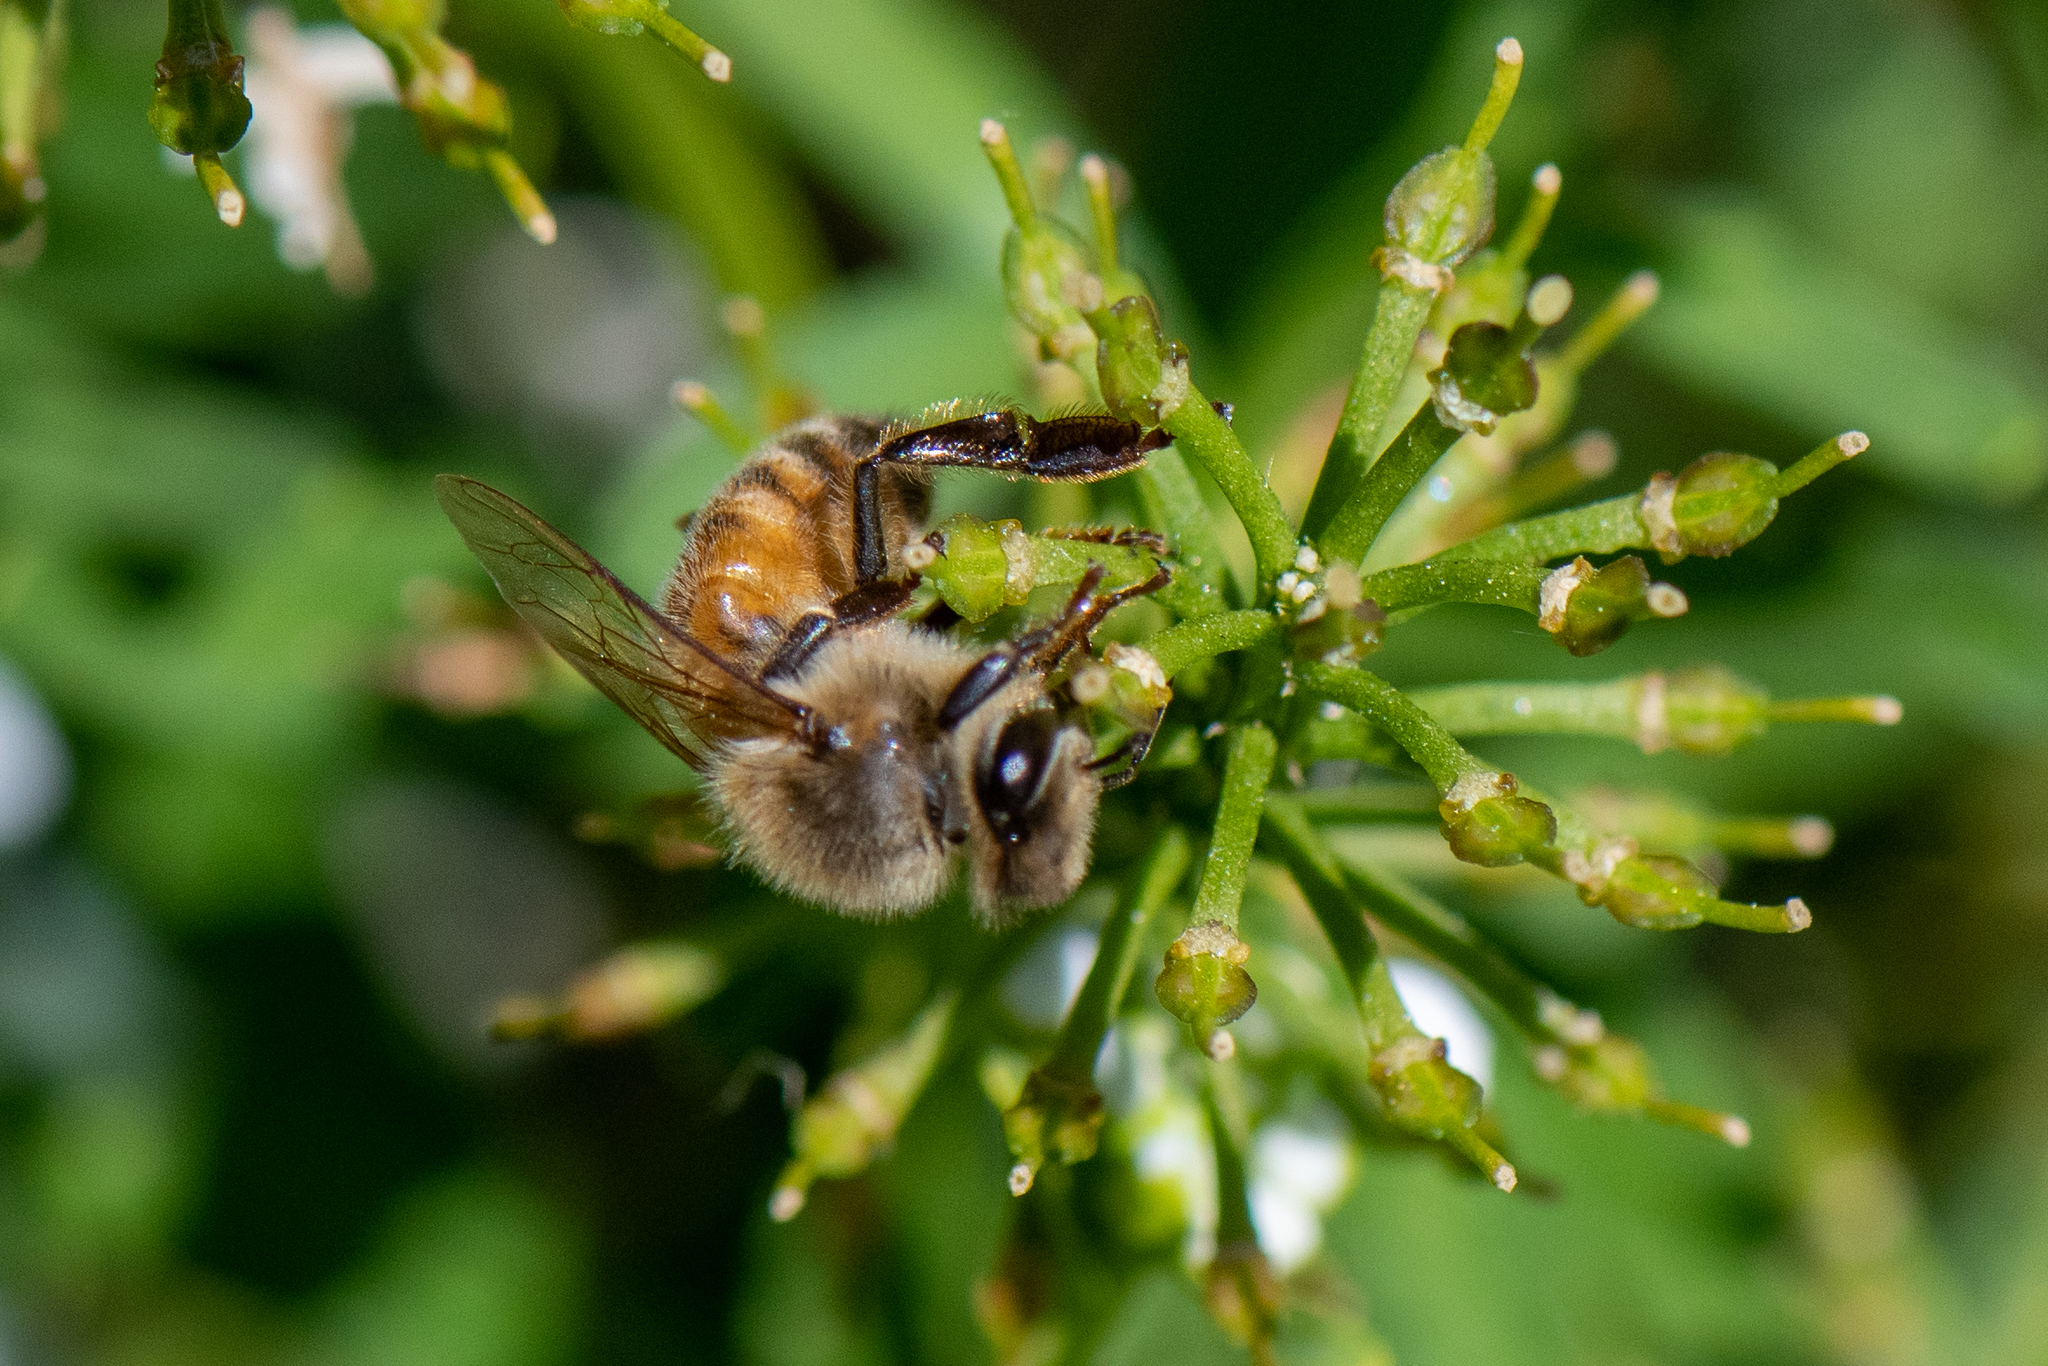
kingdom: Animalia
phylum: Arthropoda
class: Insecta
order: Hymenoptera
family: Apidae
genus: Apis
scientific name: Apis mellifera
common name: Honey bee
